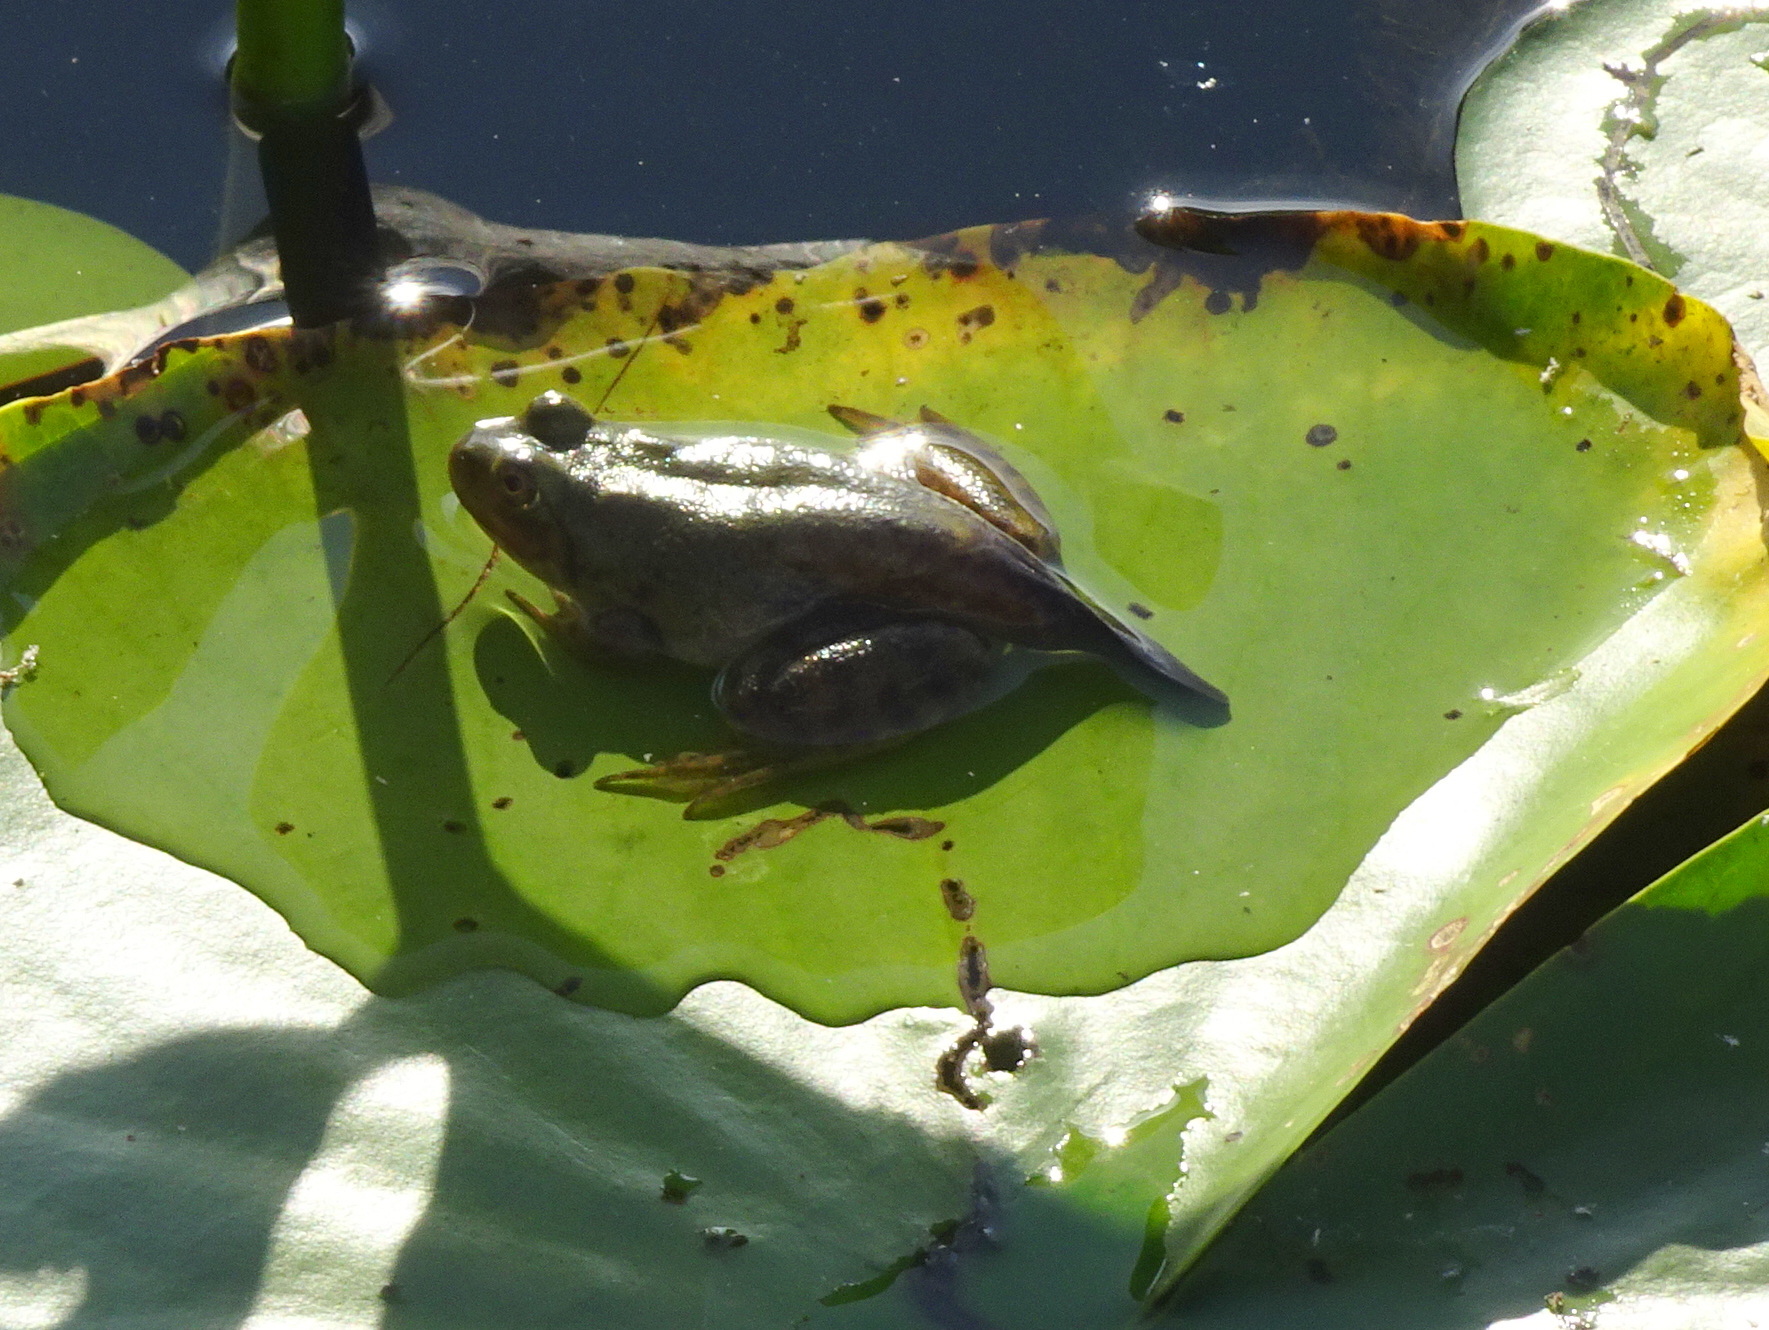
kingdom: Animalia
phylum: Chordata
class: Amphibia
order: Anura
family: Ranidae
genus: Lithobates
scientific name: Lithobates catesbeianus
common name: American bullfrog
